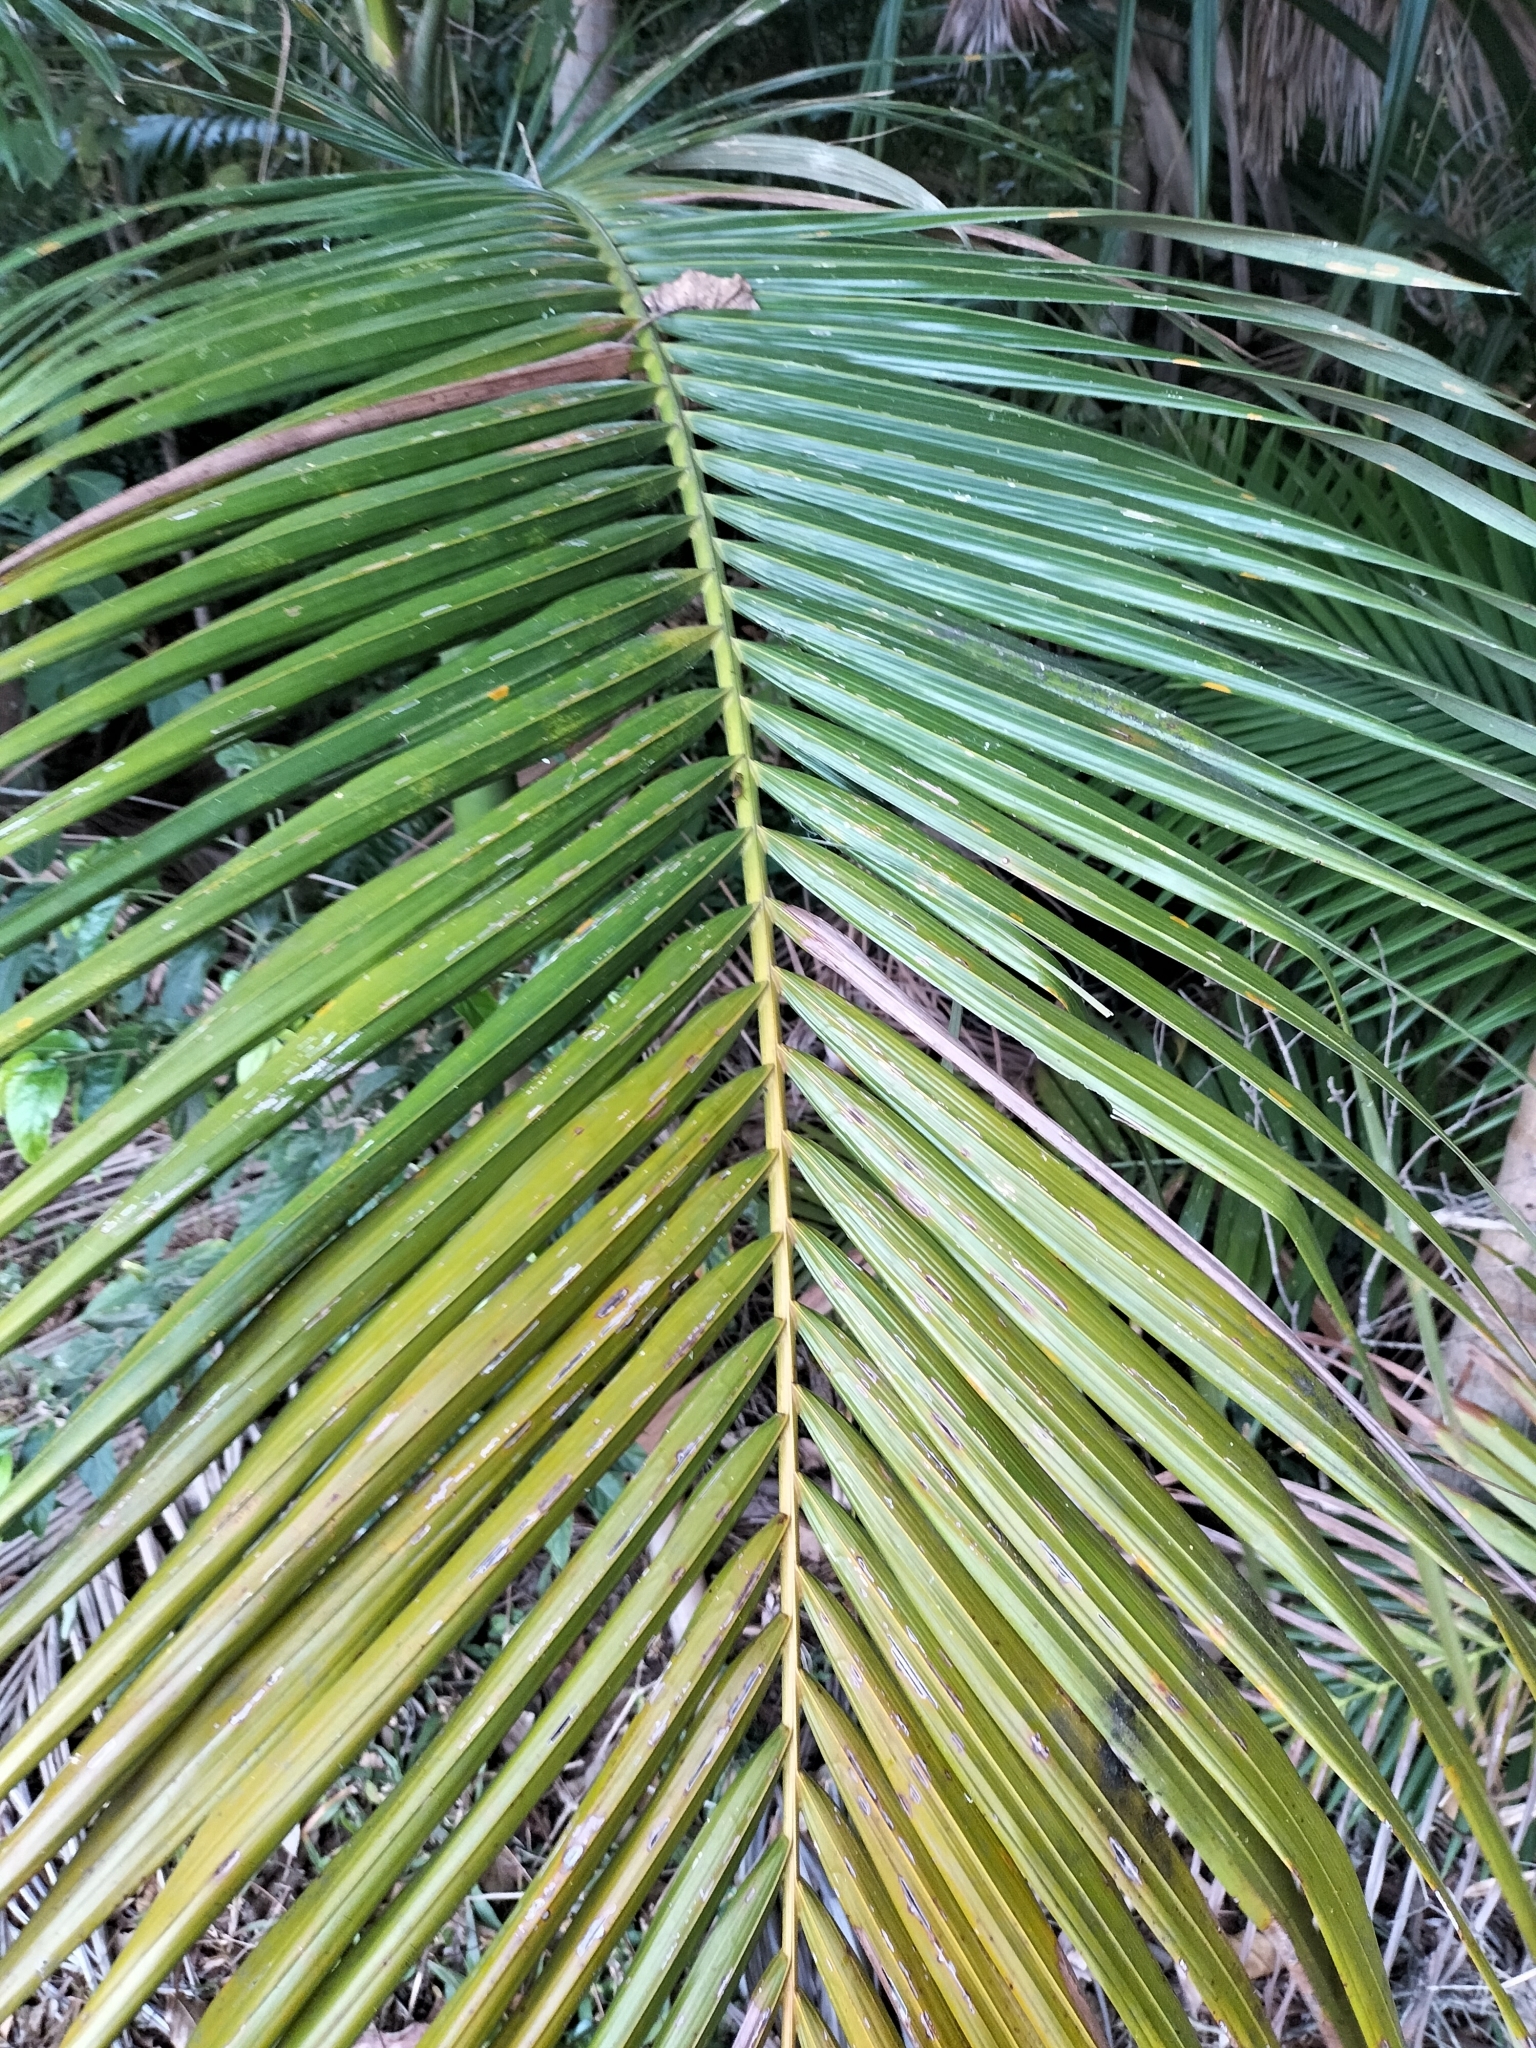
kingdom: Plantae
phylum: Tracheophyta
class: Liliopsida
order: Arecales
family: Arecaceae
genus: Archontophoenix
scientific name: Archontophoenix alexandrae
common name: Alexandra palm
